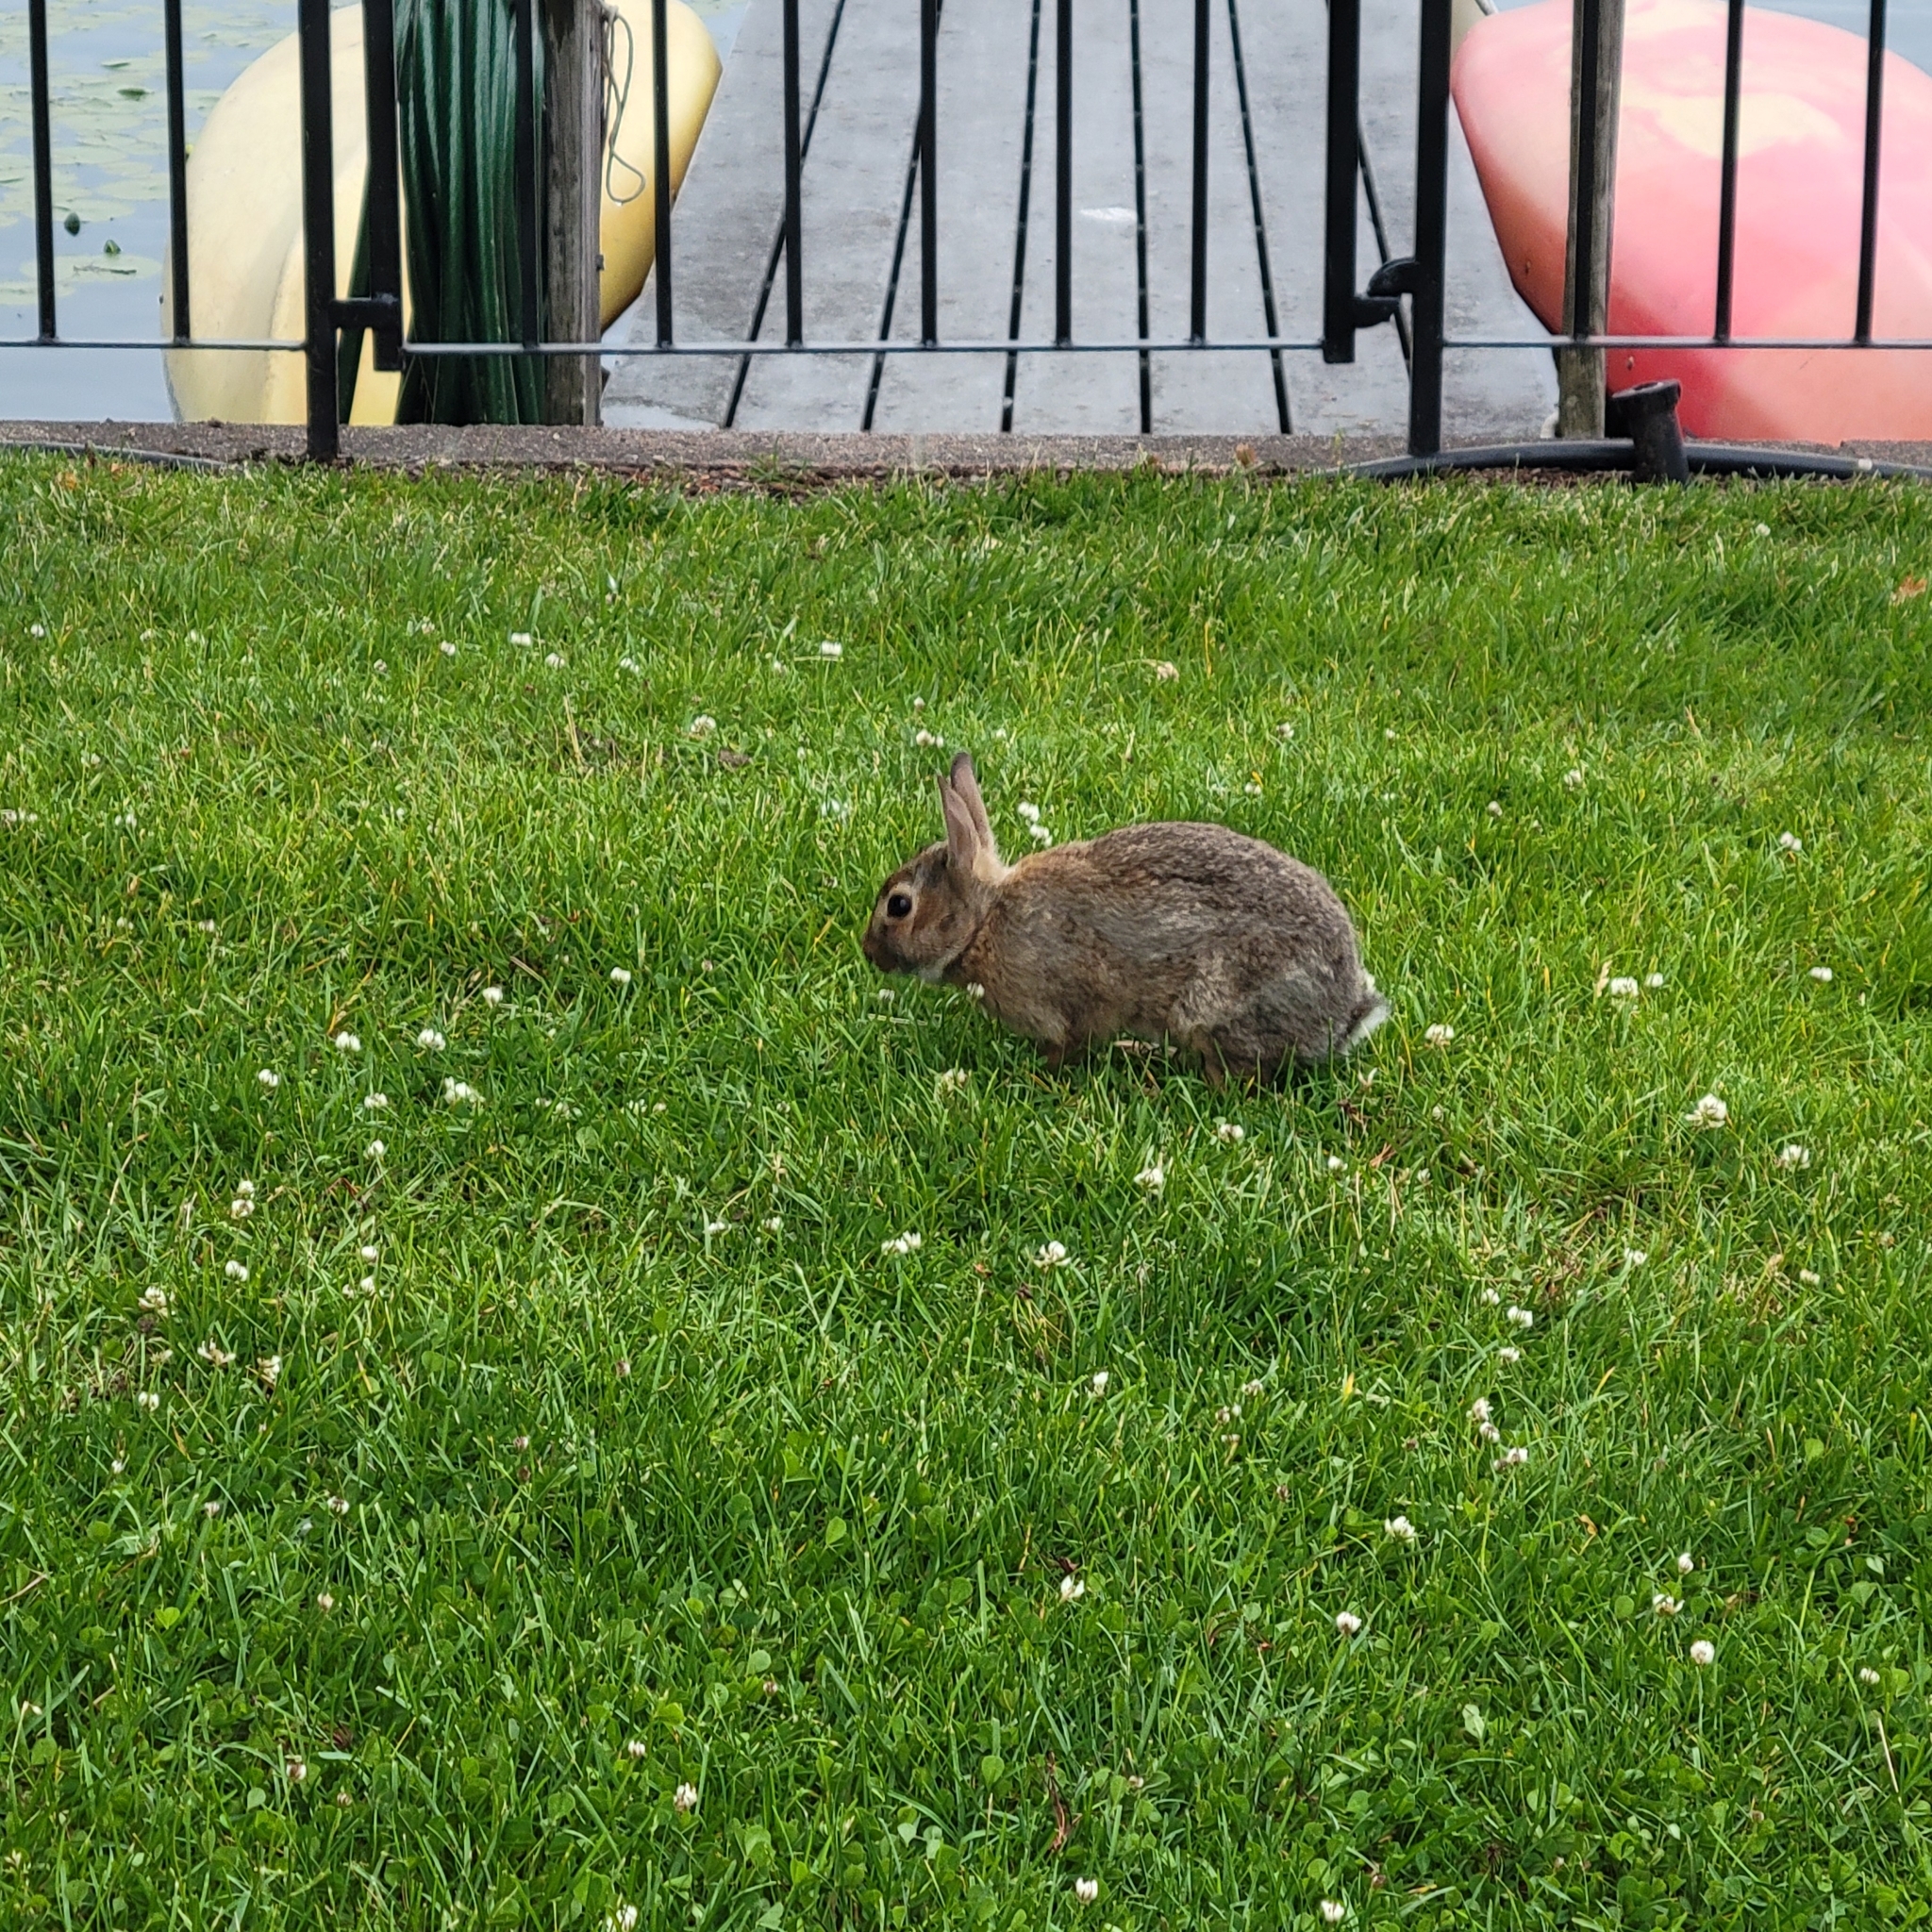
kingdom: Animalia
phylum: Chordata
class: Mammalia
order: Lagomorpha
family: Leporidae
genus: Sylvilagus
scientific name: Sylvilagus floridanus
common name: Eastern cottontail
